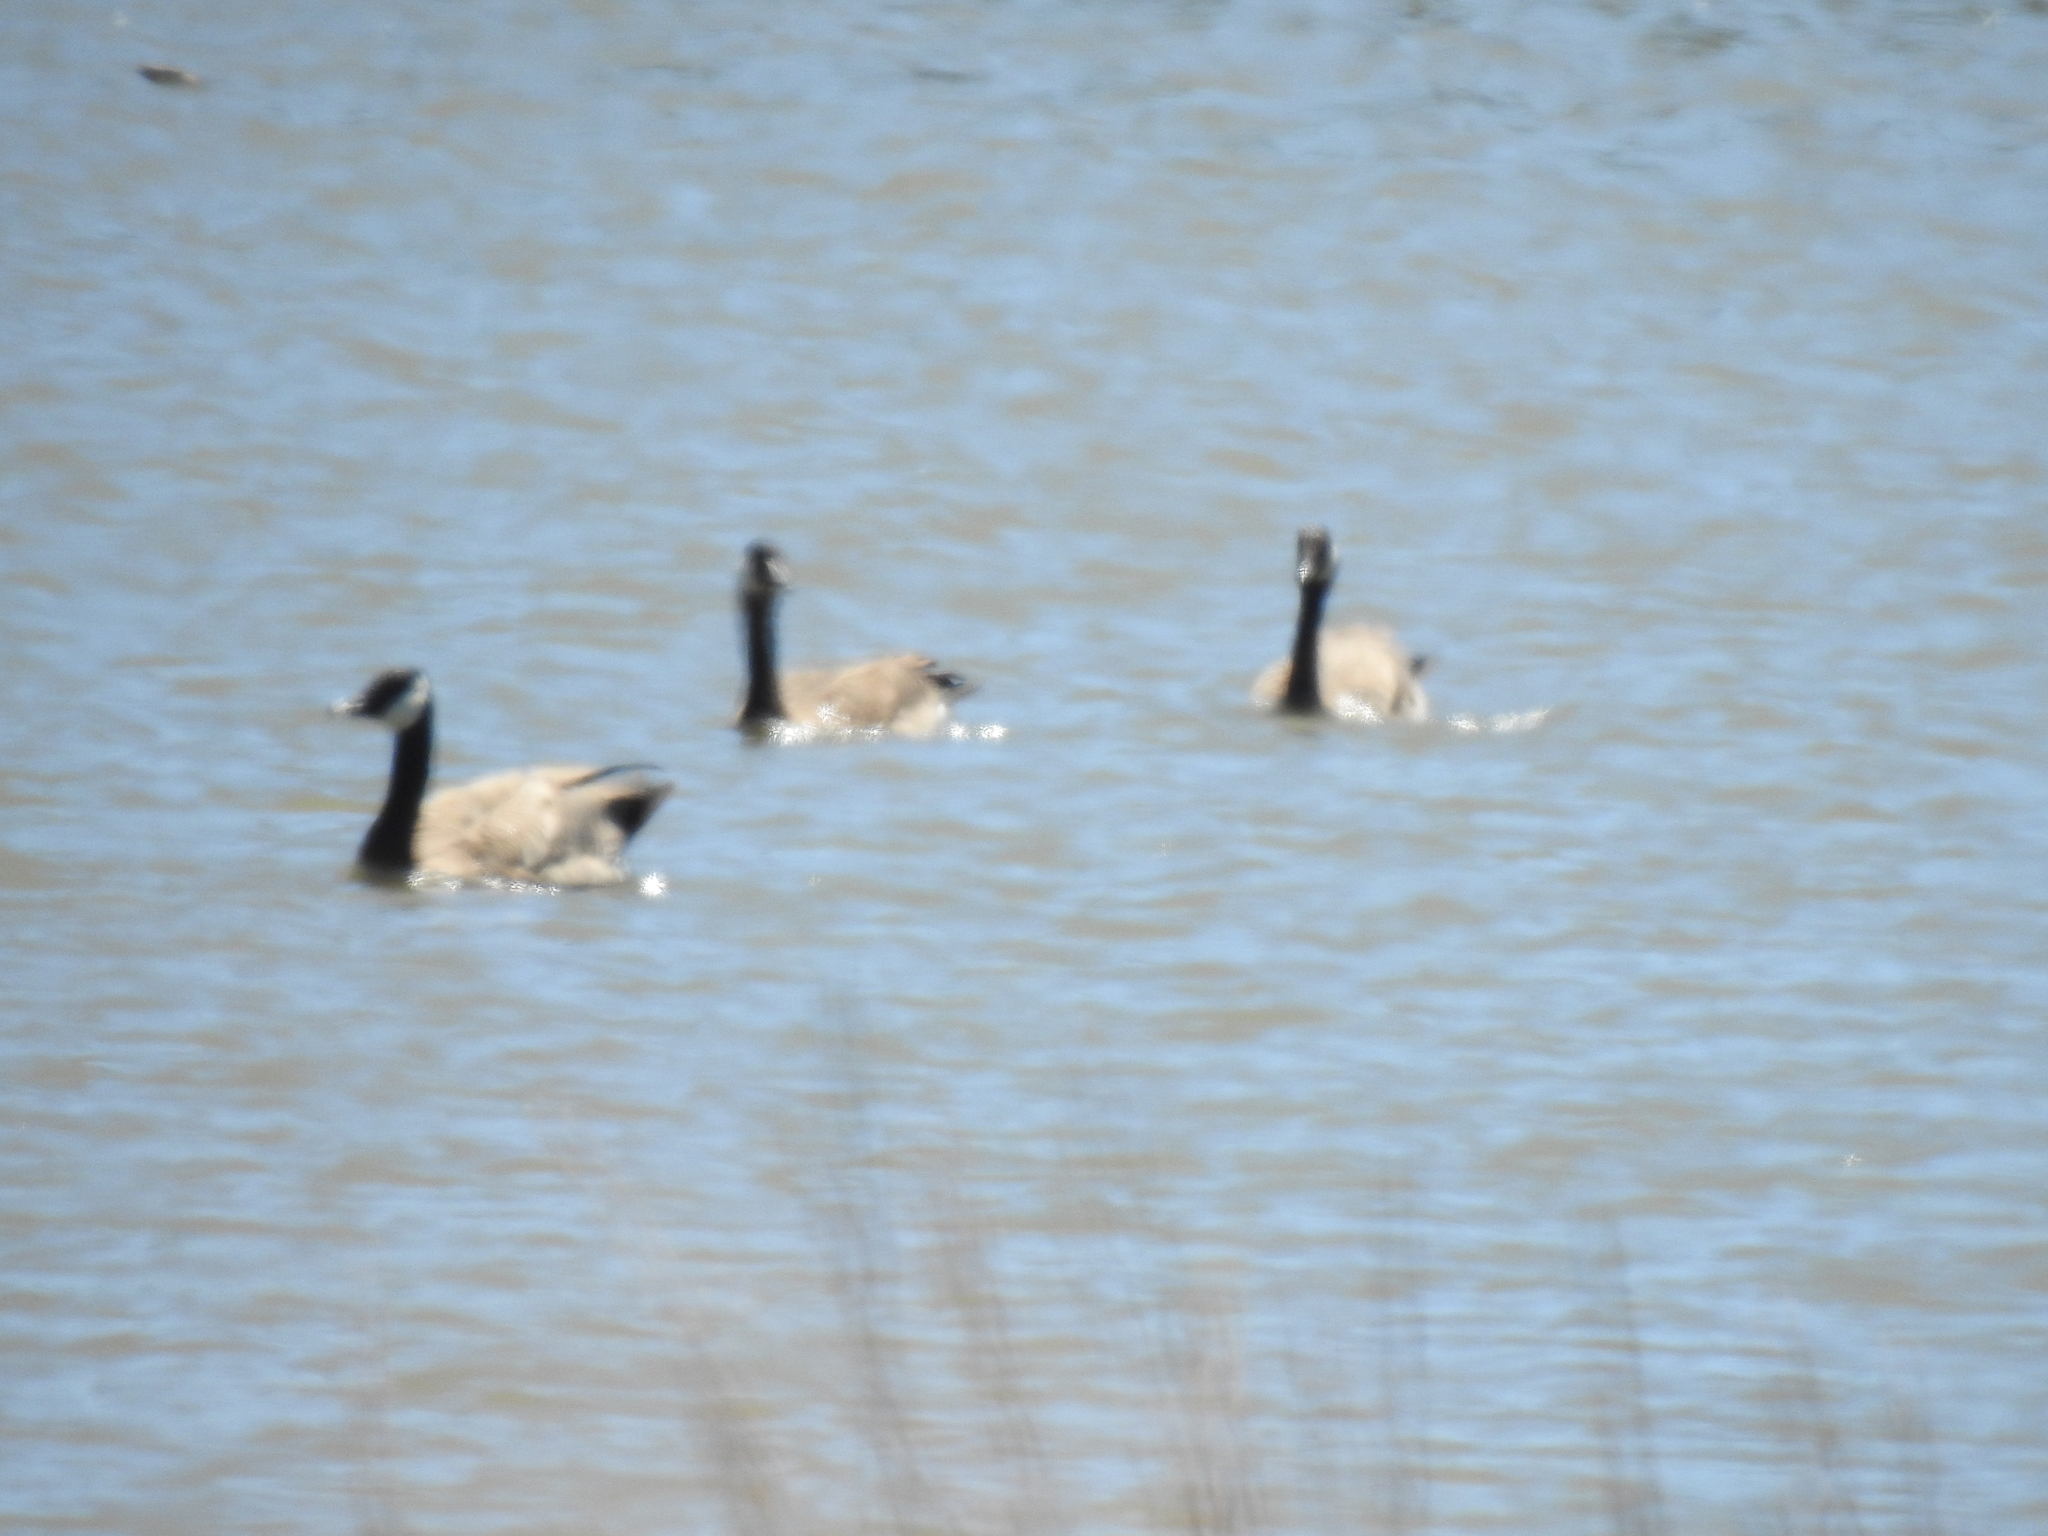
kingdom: Animalia
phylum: Chordata
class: Aves
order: Anseriformes
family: Anatidae
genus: Branta
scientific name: Branta canadensis
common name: Canada goose
